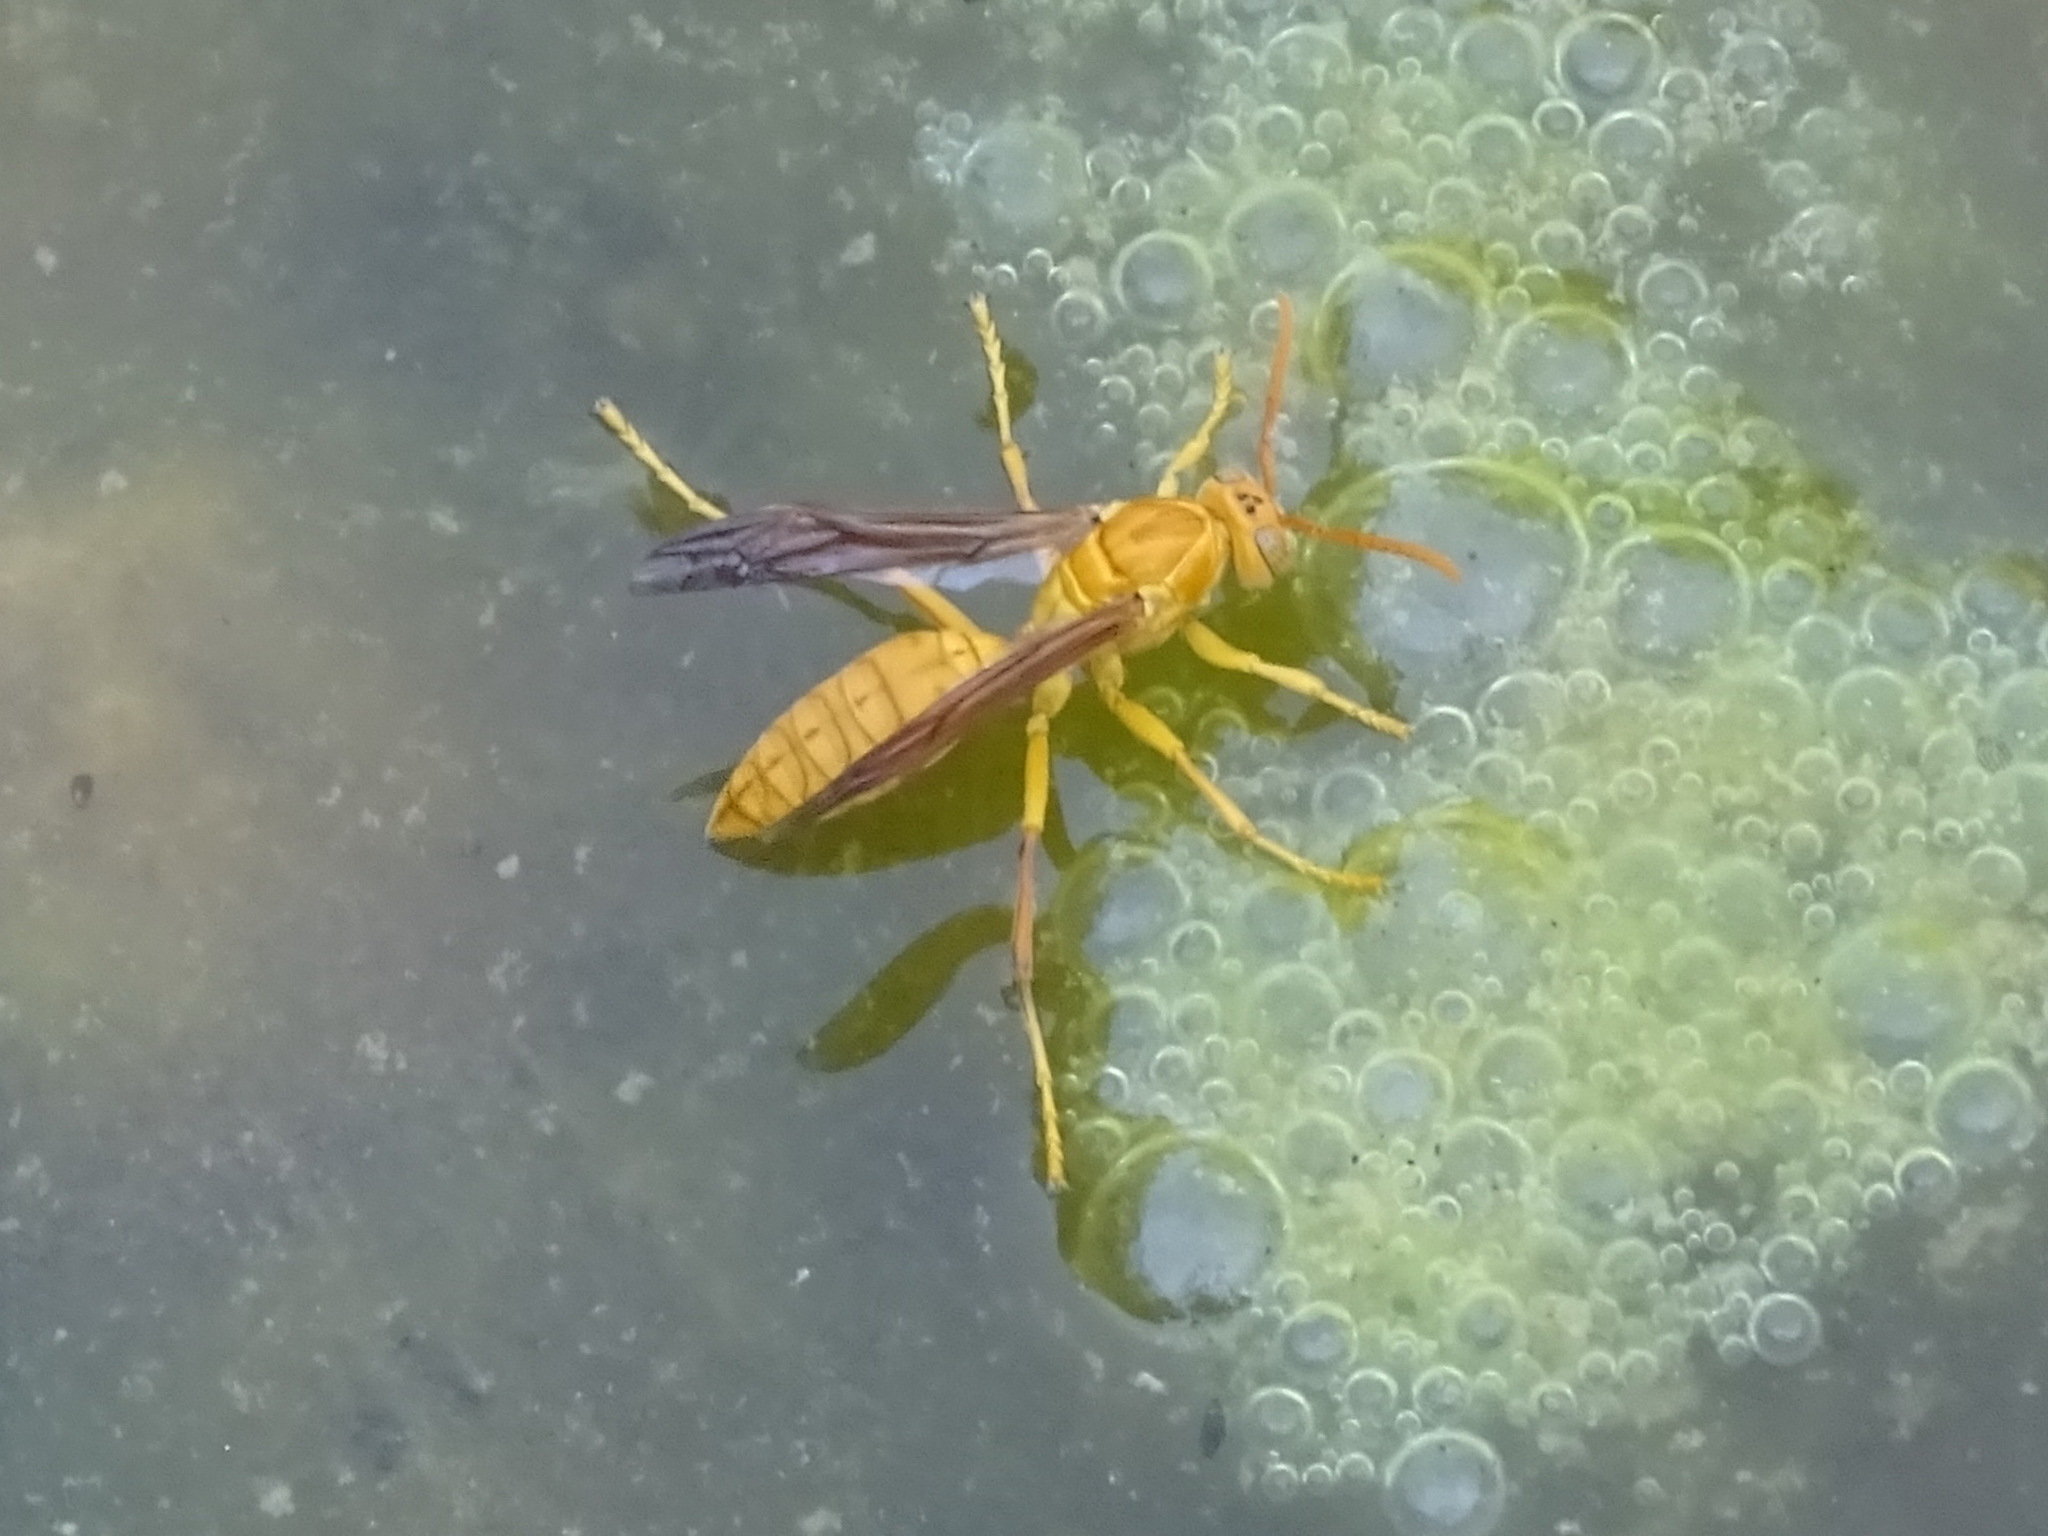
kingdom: Animalia
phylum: Arthropoda
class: Insecta
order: Hymenoptera
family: Eumenidae
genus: Polistes
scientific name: Polistes wattii
